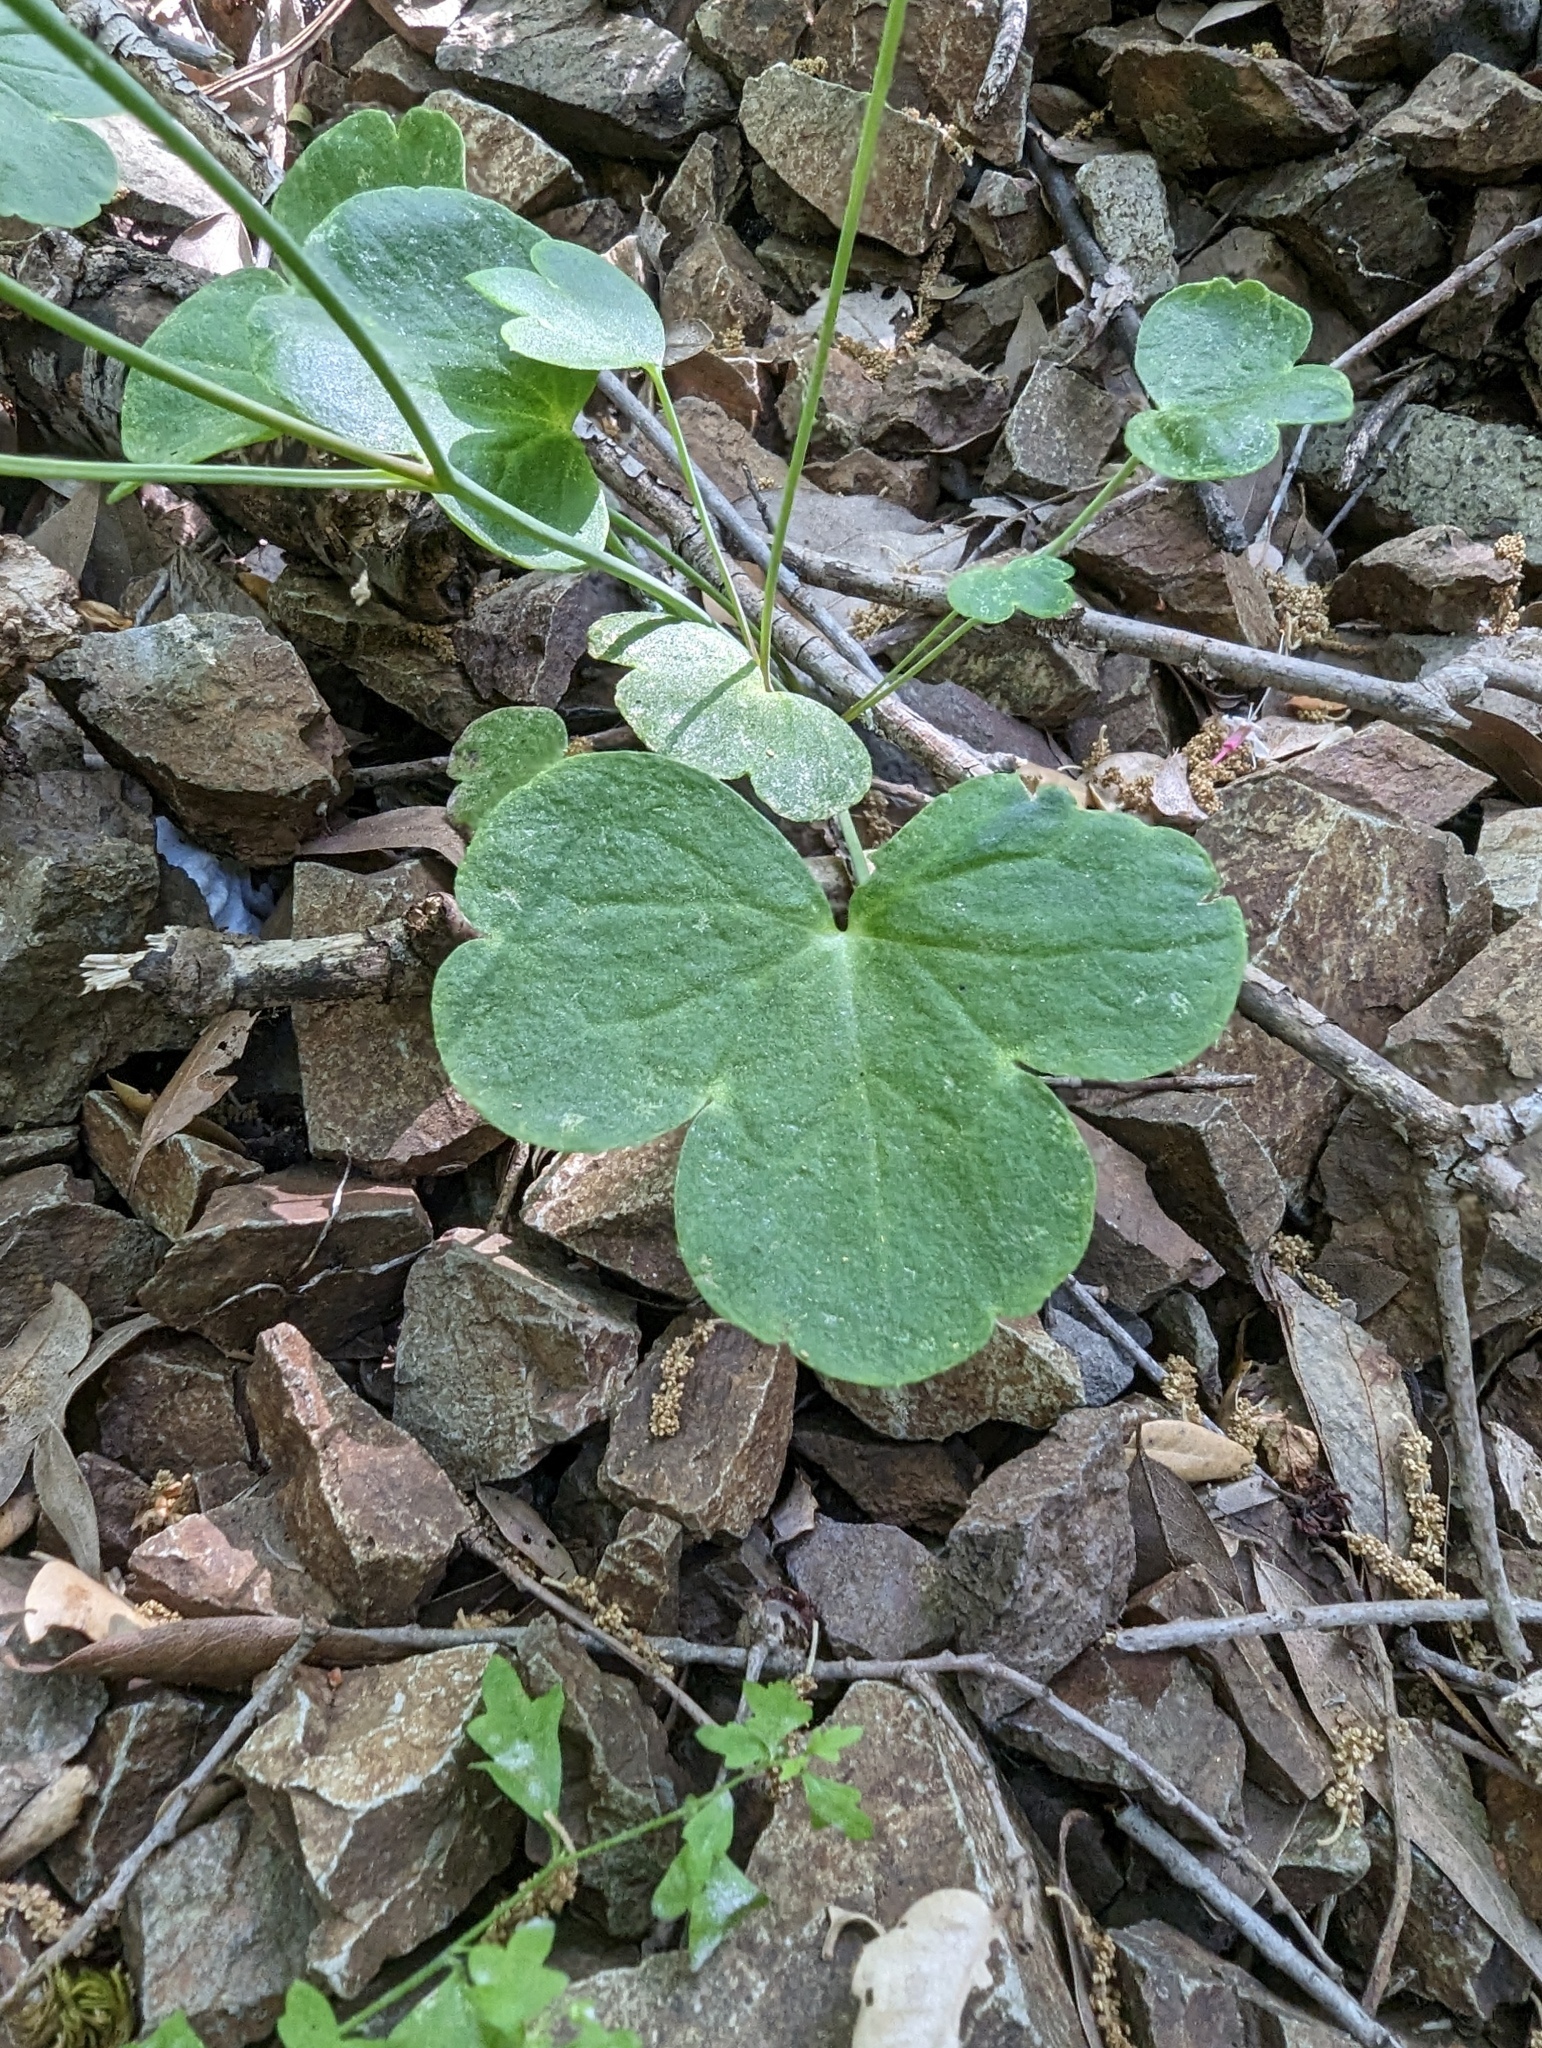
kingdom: Plantae
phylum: Tracheophyta
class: Magnoliopsida
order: Ranunculales
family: Ranunculaceae
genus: Delphinium
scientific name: Delphinium nudicaule
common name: Red larkspur
